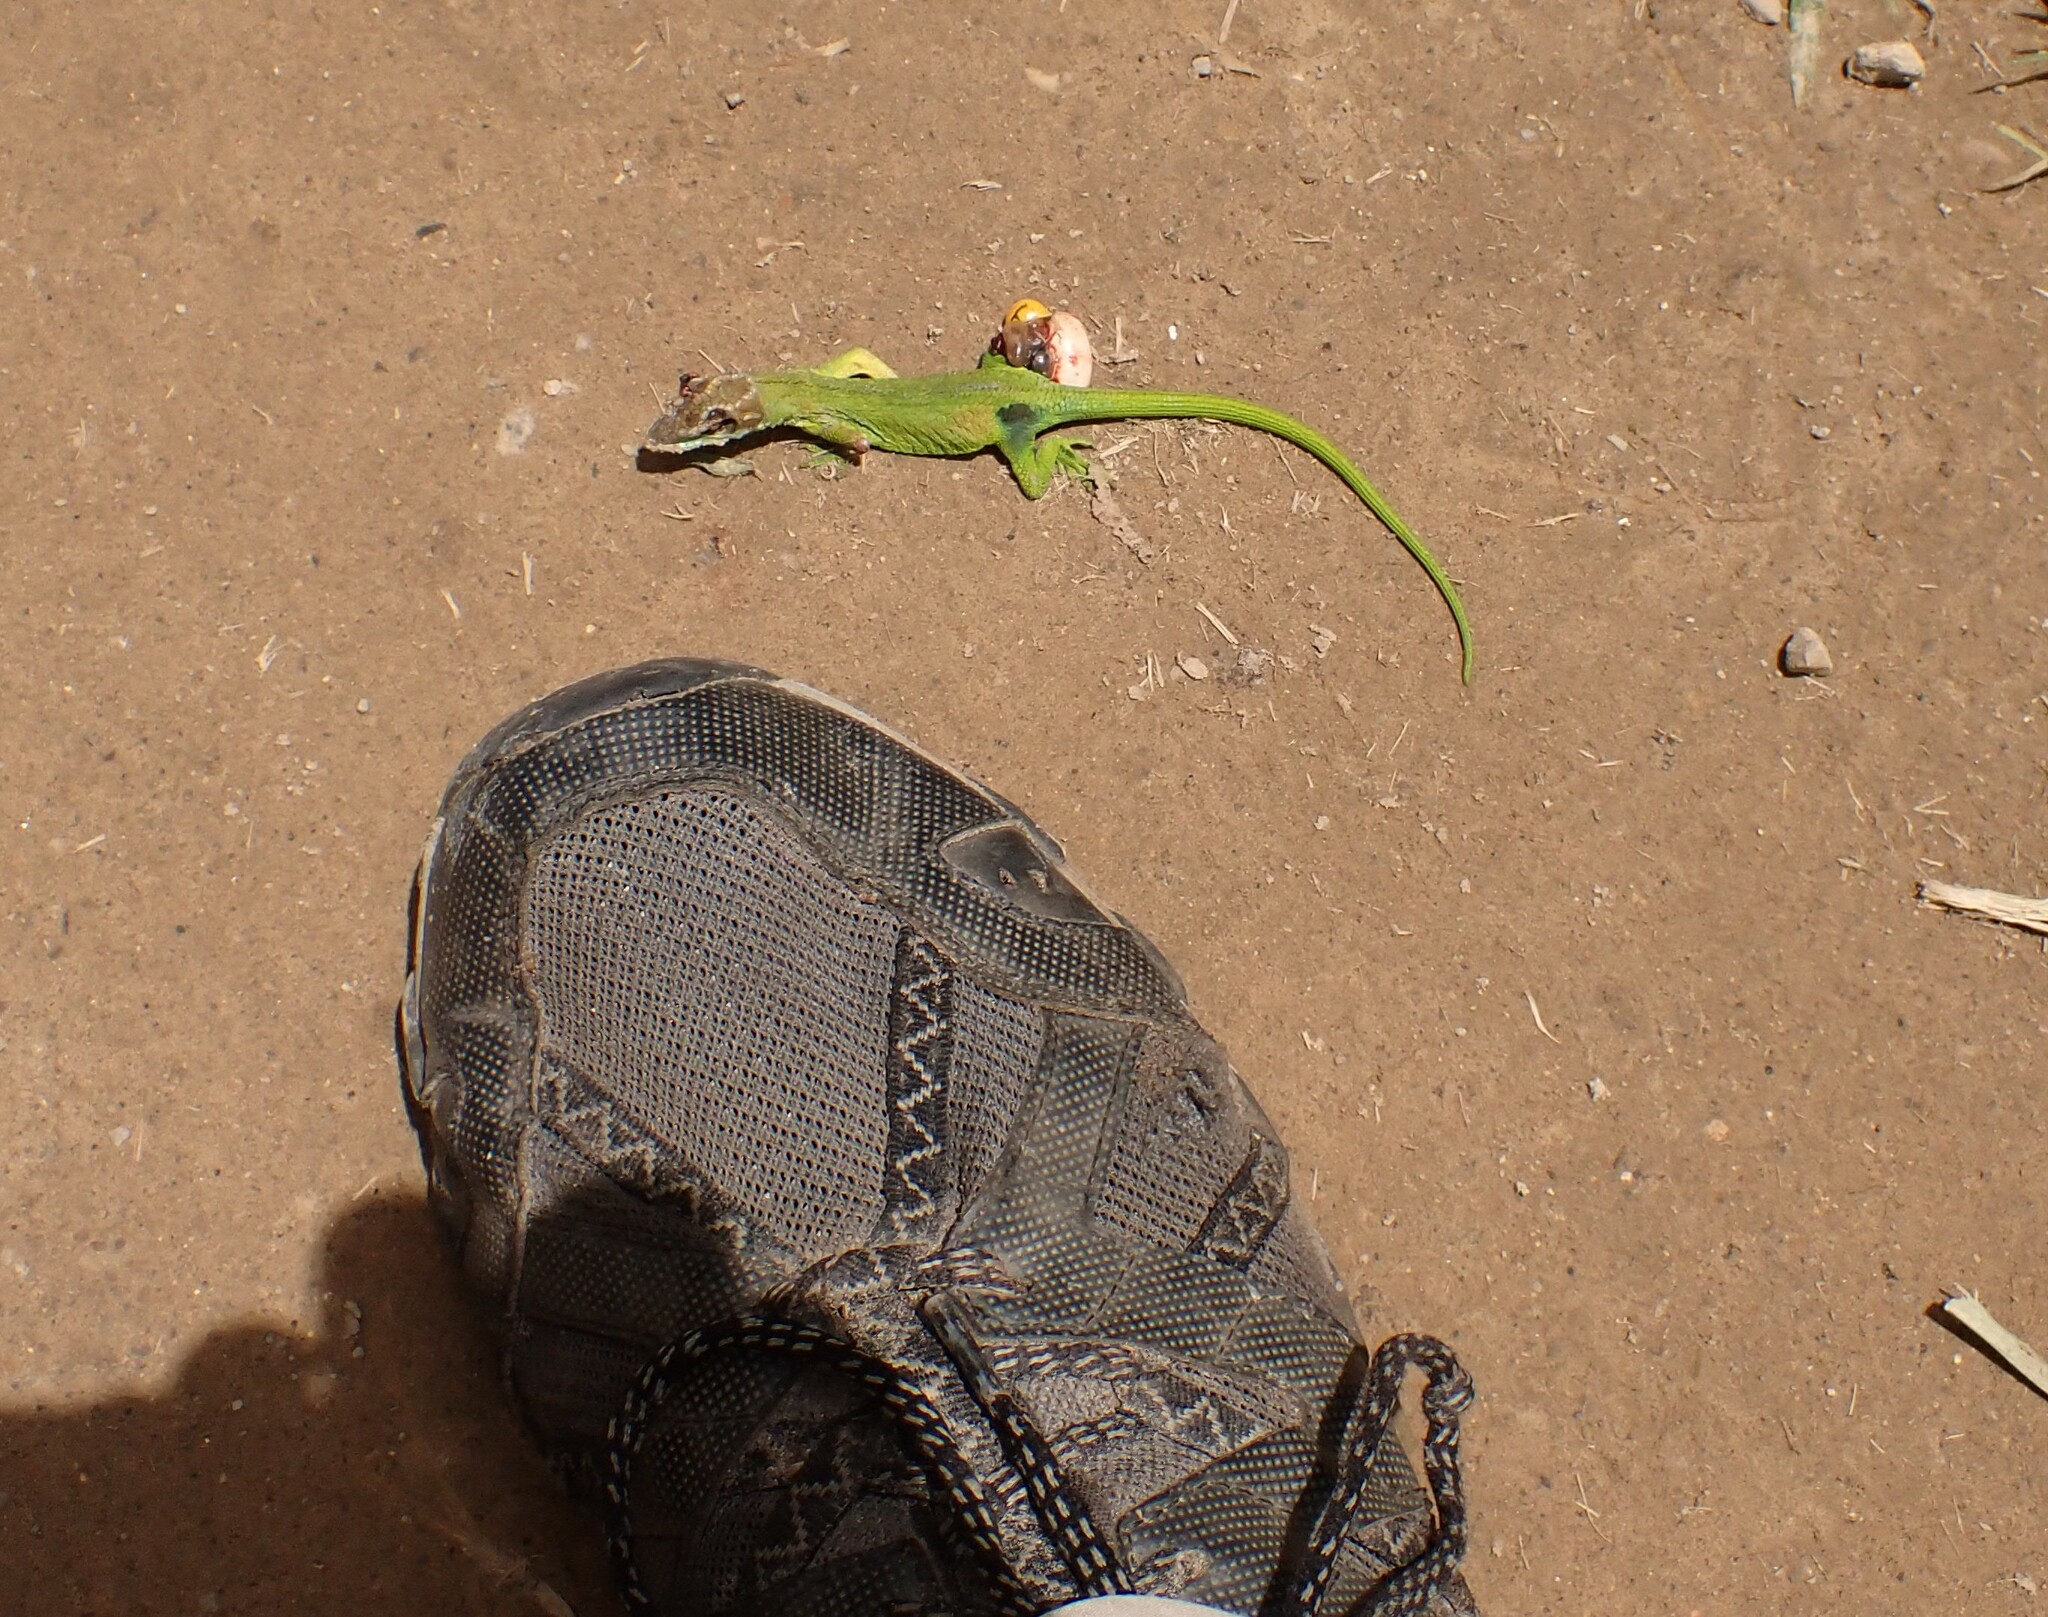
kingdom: Animalia
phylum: Chordata
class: Squamata
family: Dactyloidae
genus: Anolis
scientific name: Anolis heterodermus
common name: Flat andes anole
